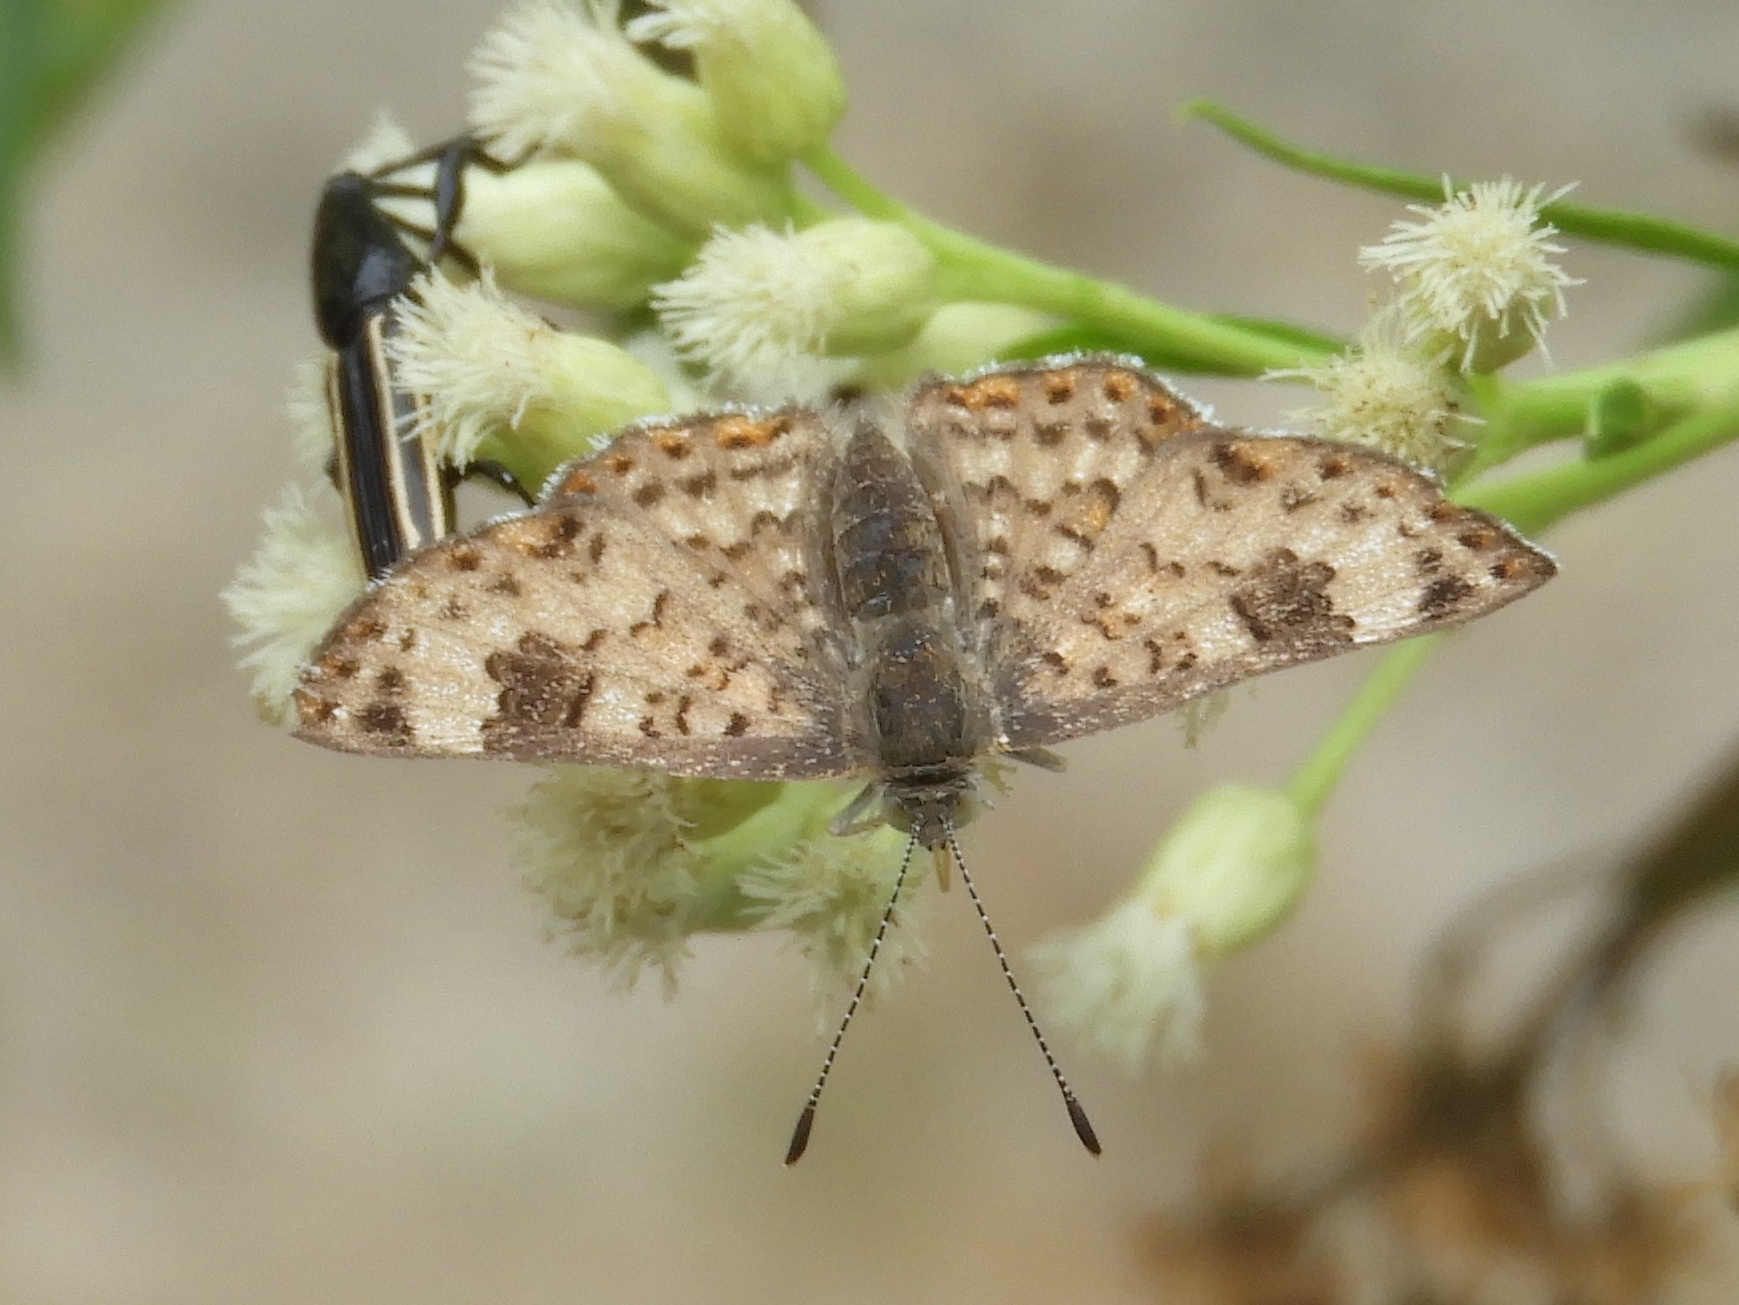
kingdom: Animalia
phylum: Arthropoda
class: Insecta
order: Lepidoptera
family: Riodinidae
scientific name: Riodinidae
